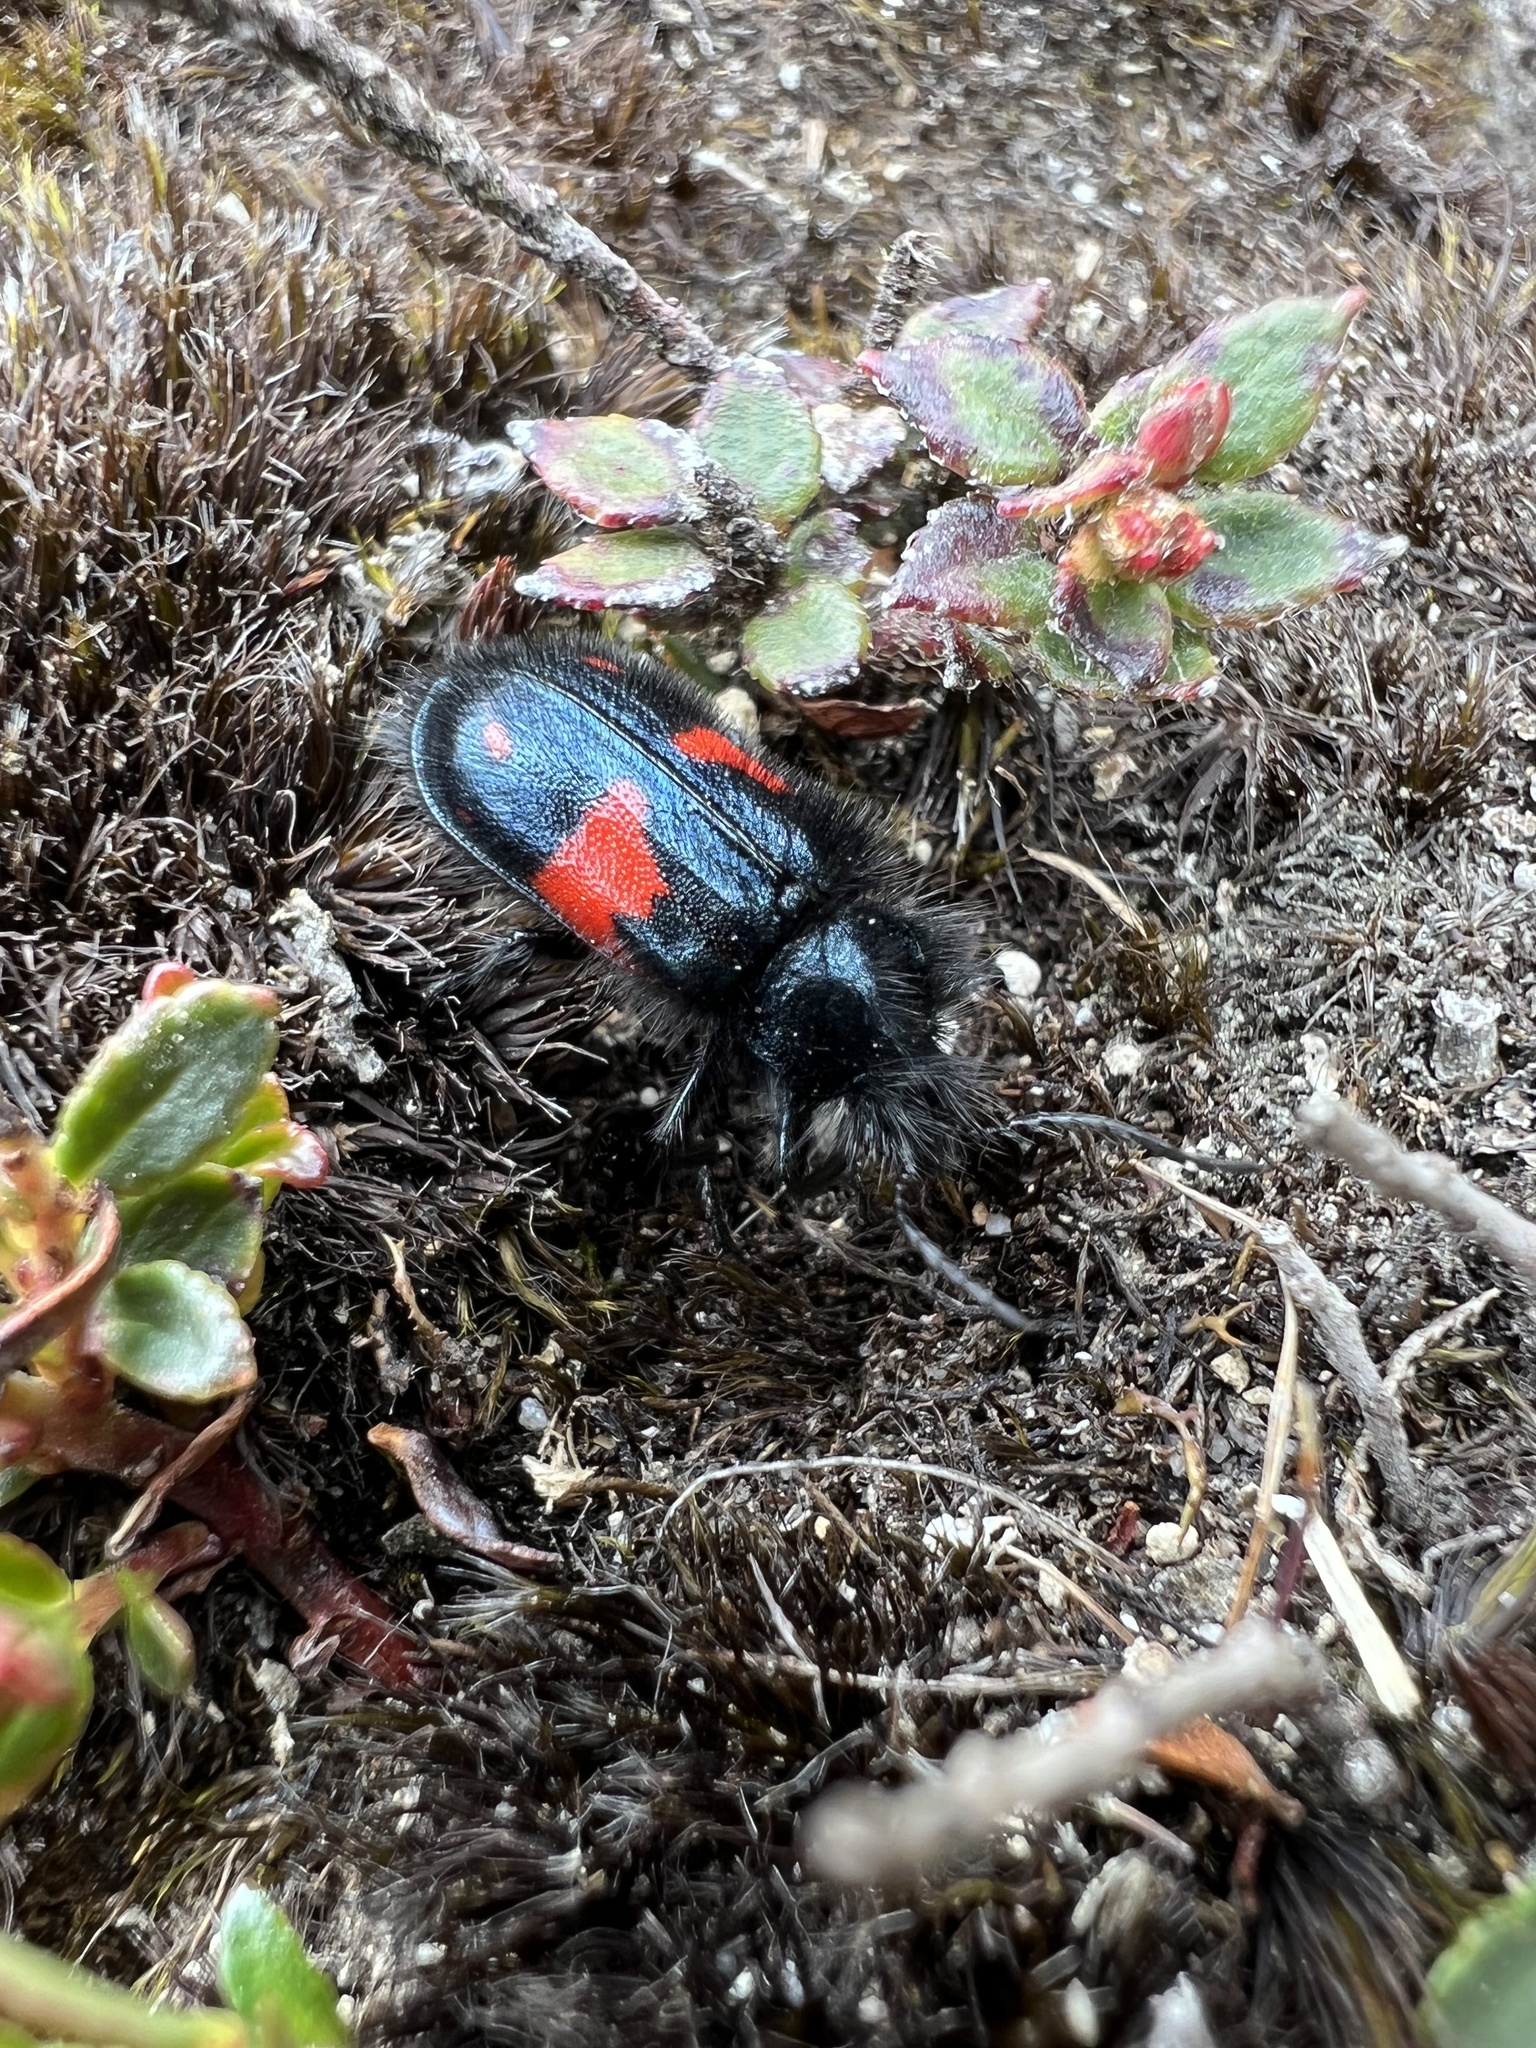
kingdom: Animalia
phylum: Arthropoda
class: Insecta
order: Coleoptera
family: Melyridae
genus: Astylus
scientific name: Astylus
